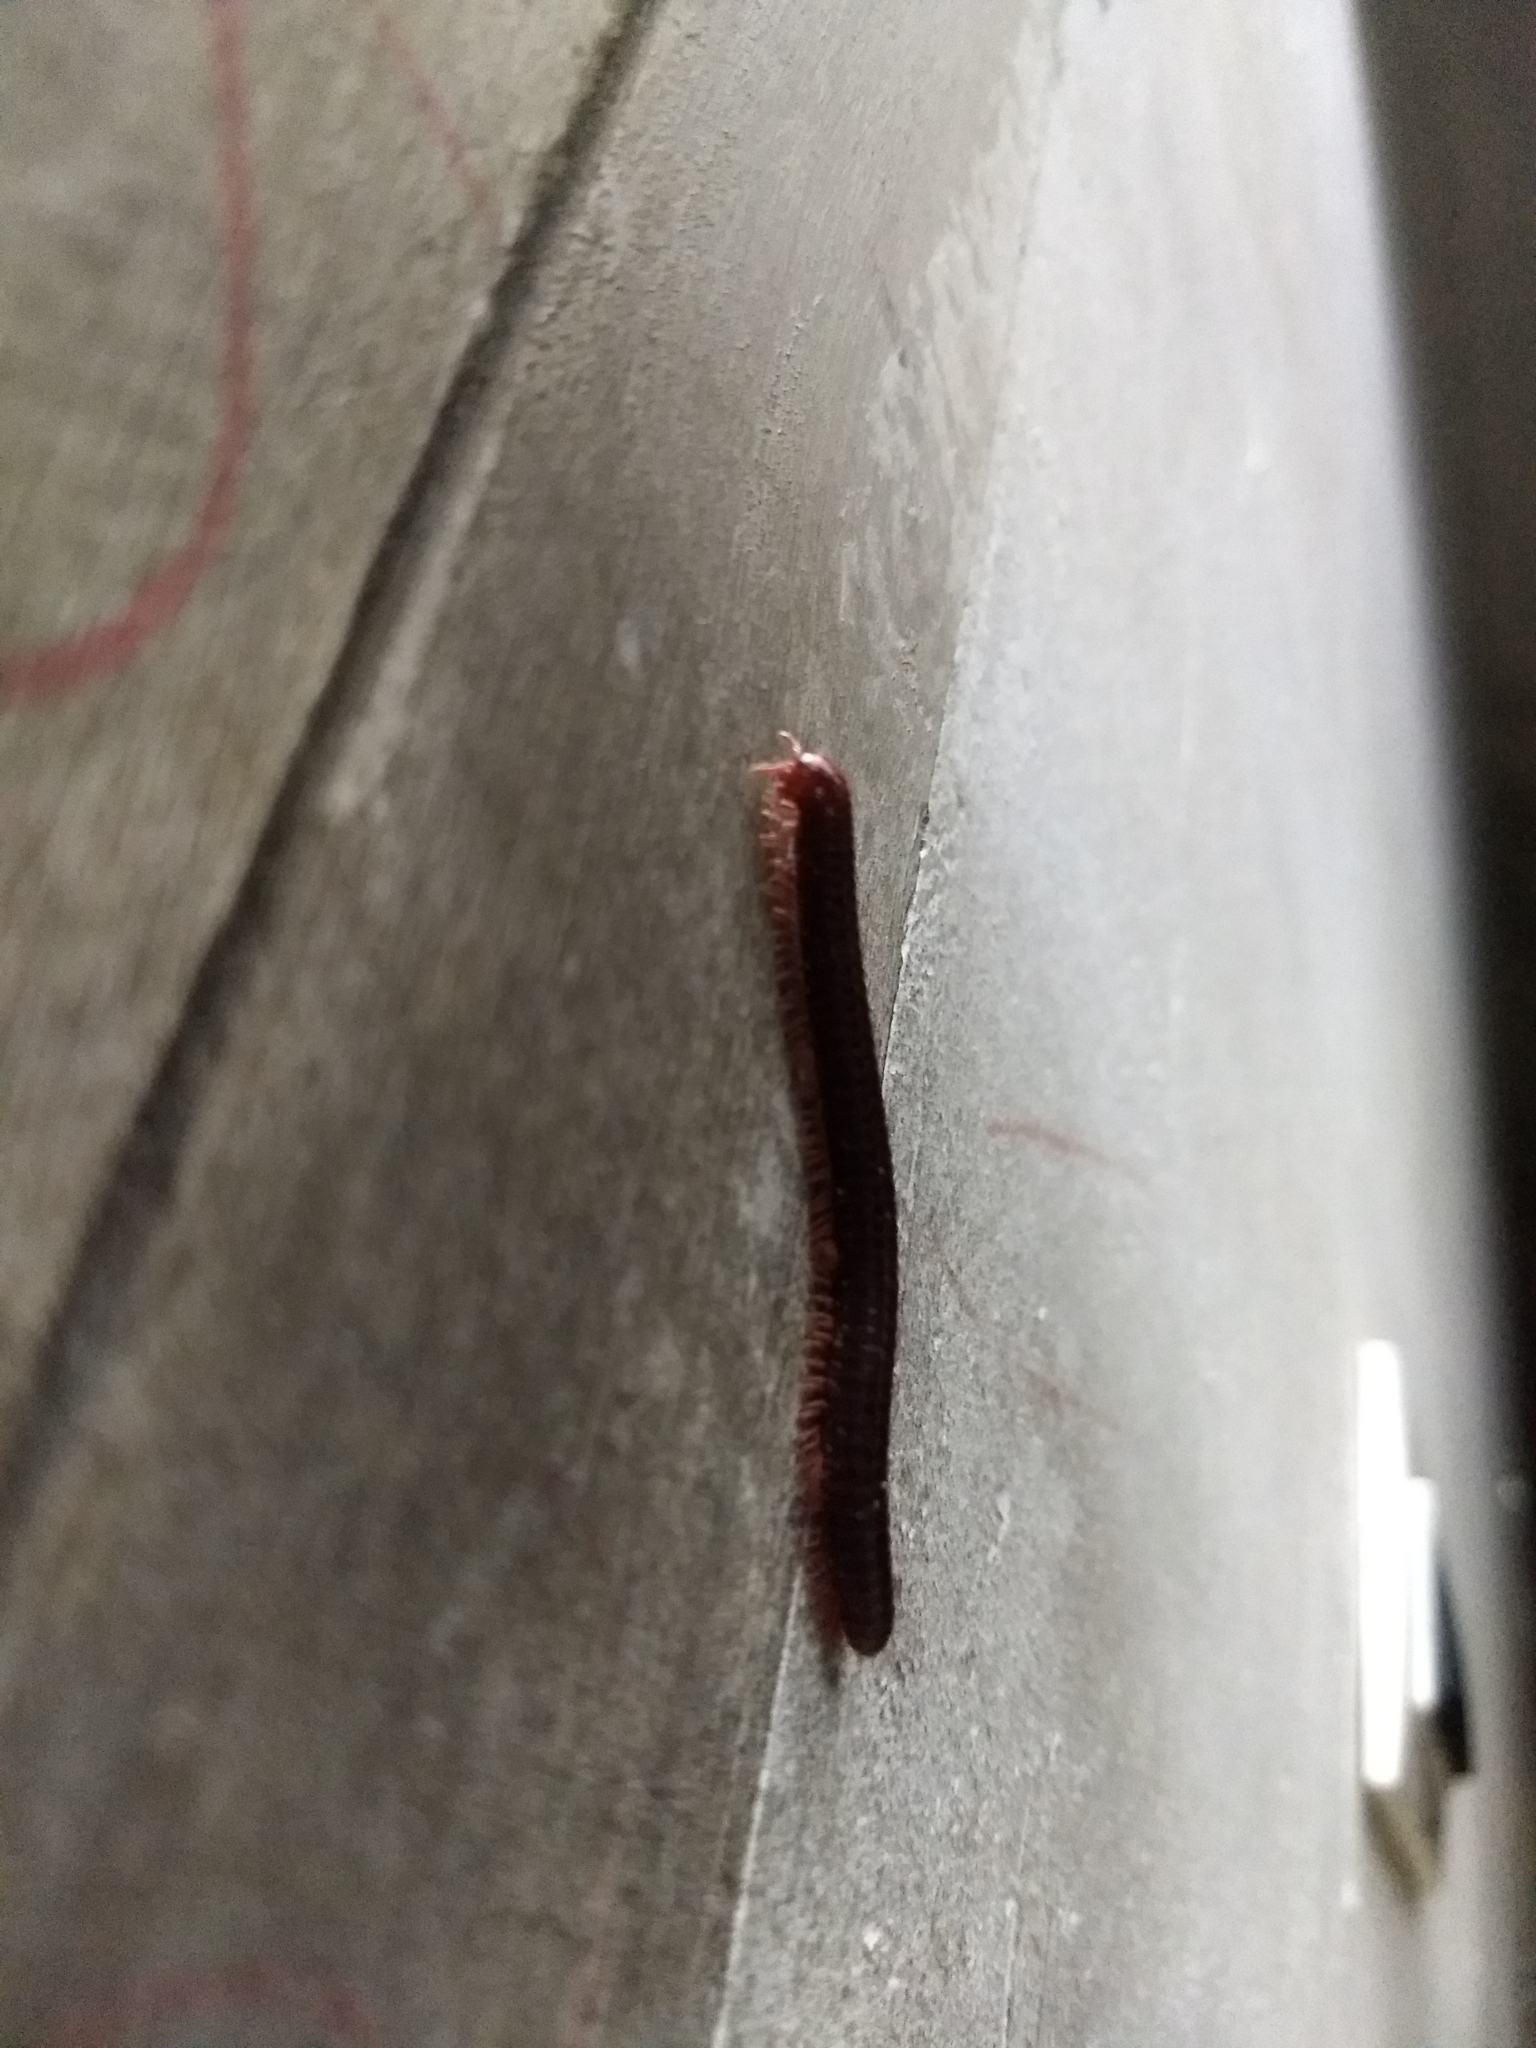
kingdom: Animalia
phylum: Arthropoda
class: Diplopoda
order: Spirobolida
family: Pachybolidae
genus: Trigoniulus
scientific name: Trigoniulus corallinus
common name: Millipede
